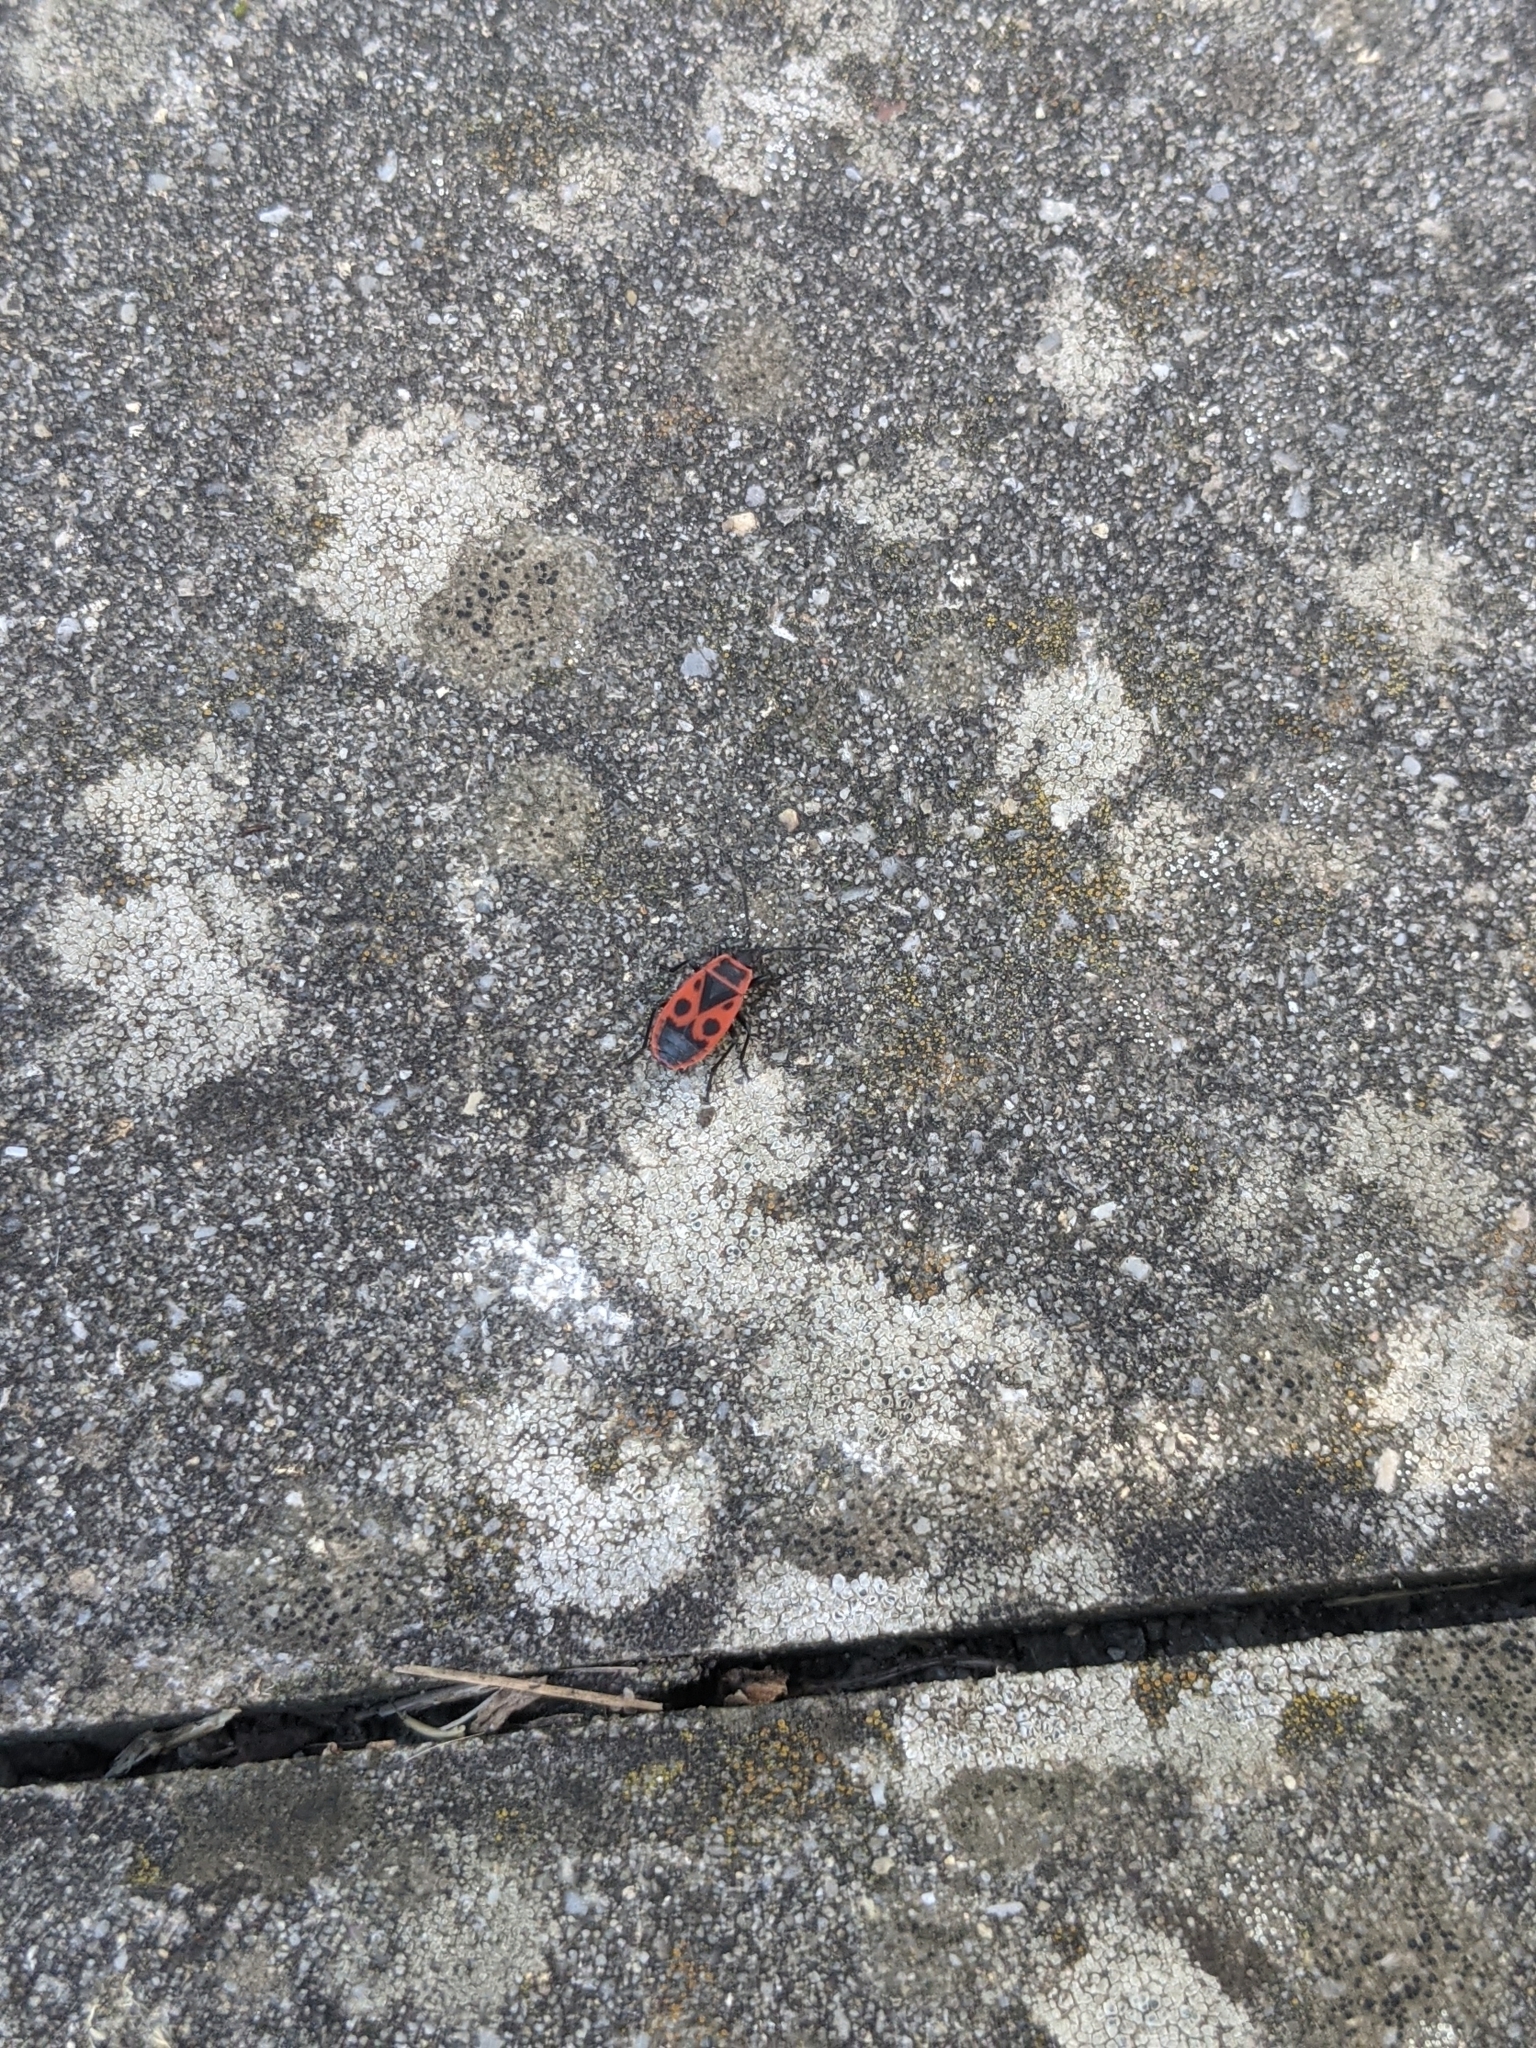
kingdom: Animalia
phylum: Arthropoda
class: Insecta
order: Hemiptera
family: Pyrrhocoridae
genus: Pyrrhocoris
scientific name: Pyrrhocoris apterus
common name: Firebug
